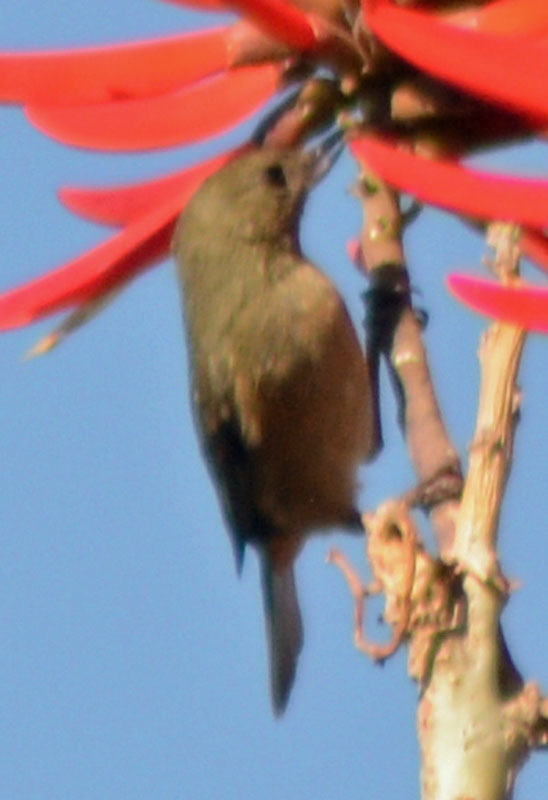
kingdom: Animalia
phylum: Chordata
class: Aves
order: Passeriformes
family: Thraupidae
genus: Diglossa
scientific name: Diglossa baritula
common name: Cinnamon-bellied flowerpiercer
